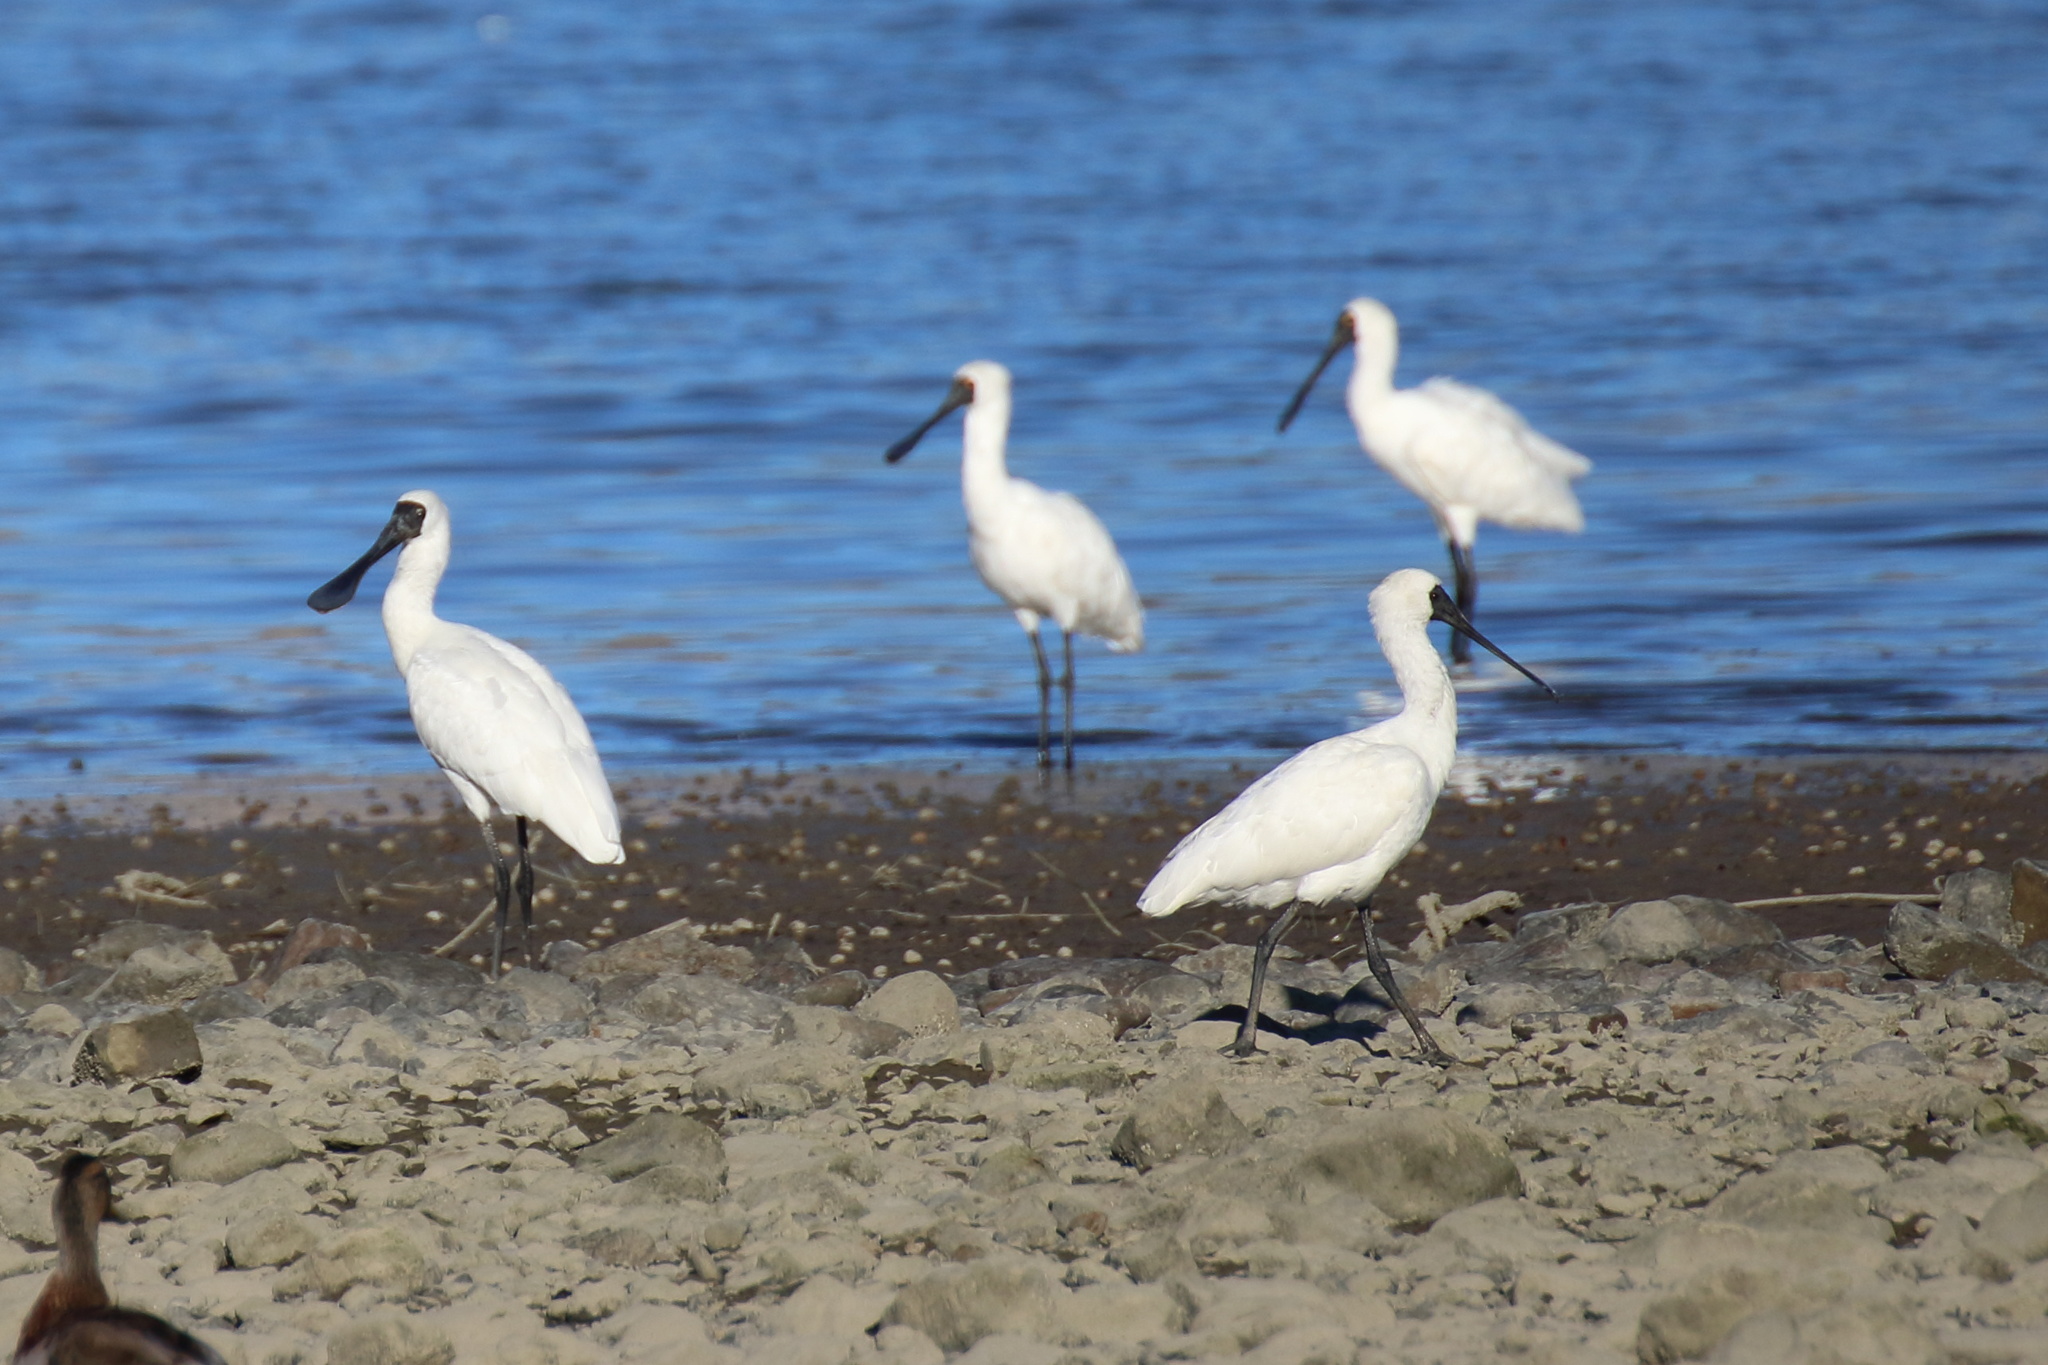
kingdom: Animalia
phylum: Chordata
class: Aves
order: Pelecaniformes
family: Threskiornithidae
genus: Platalea
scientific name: Platalea regia
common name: Royal spoonbill
